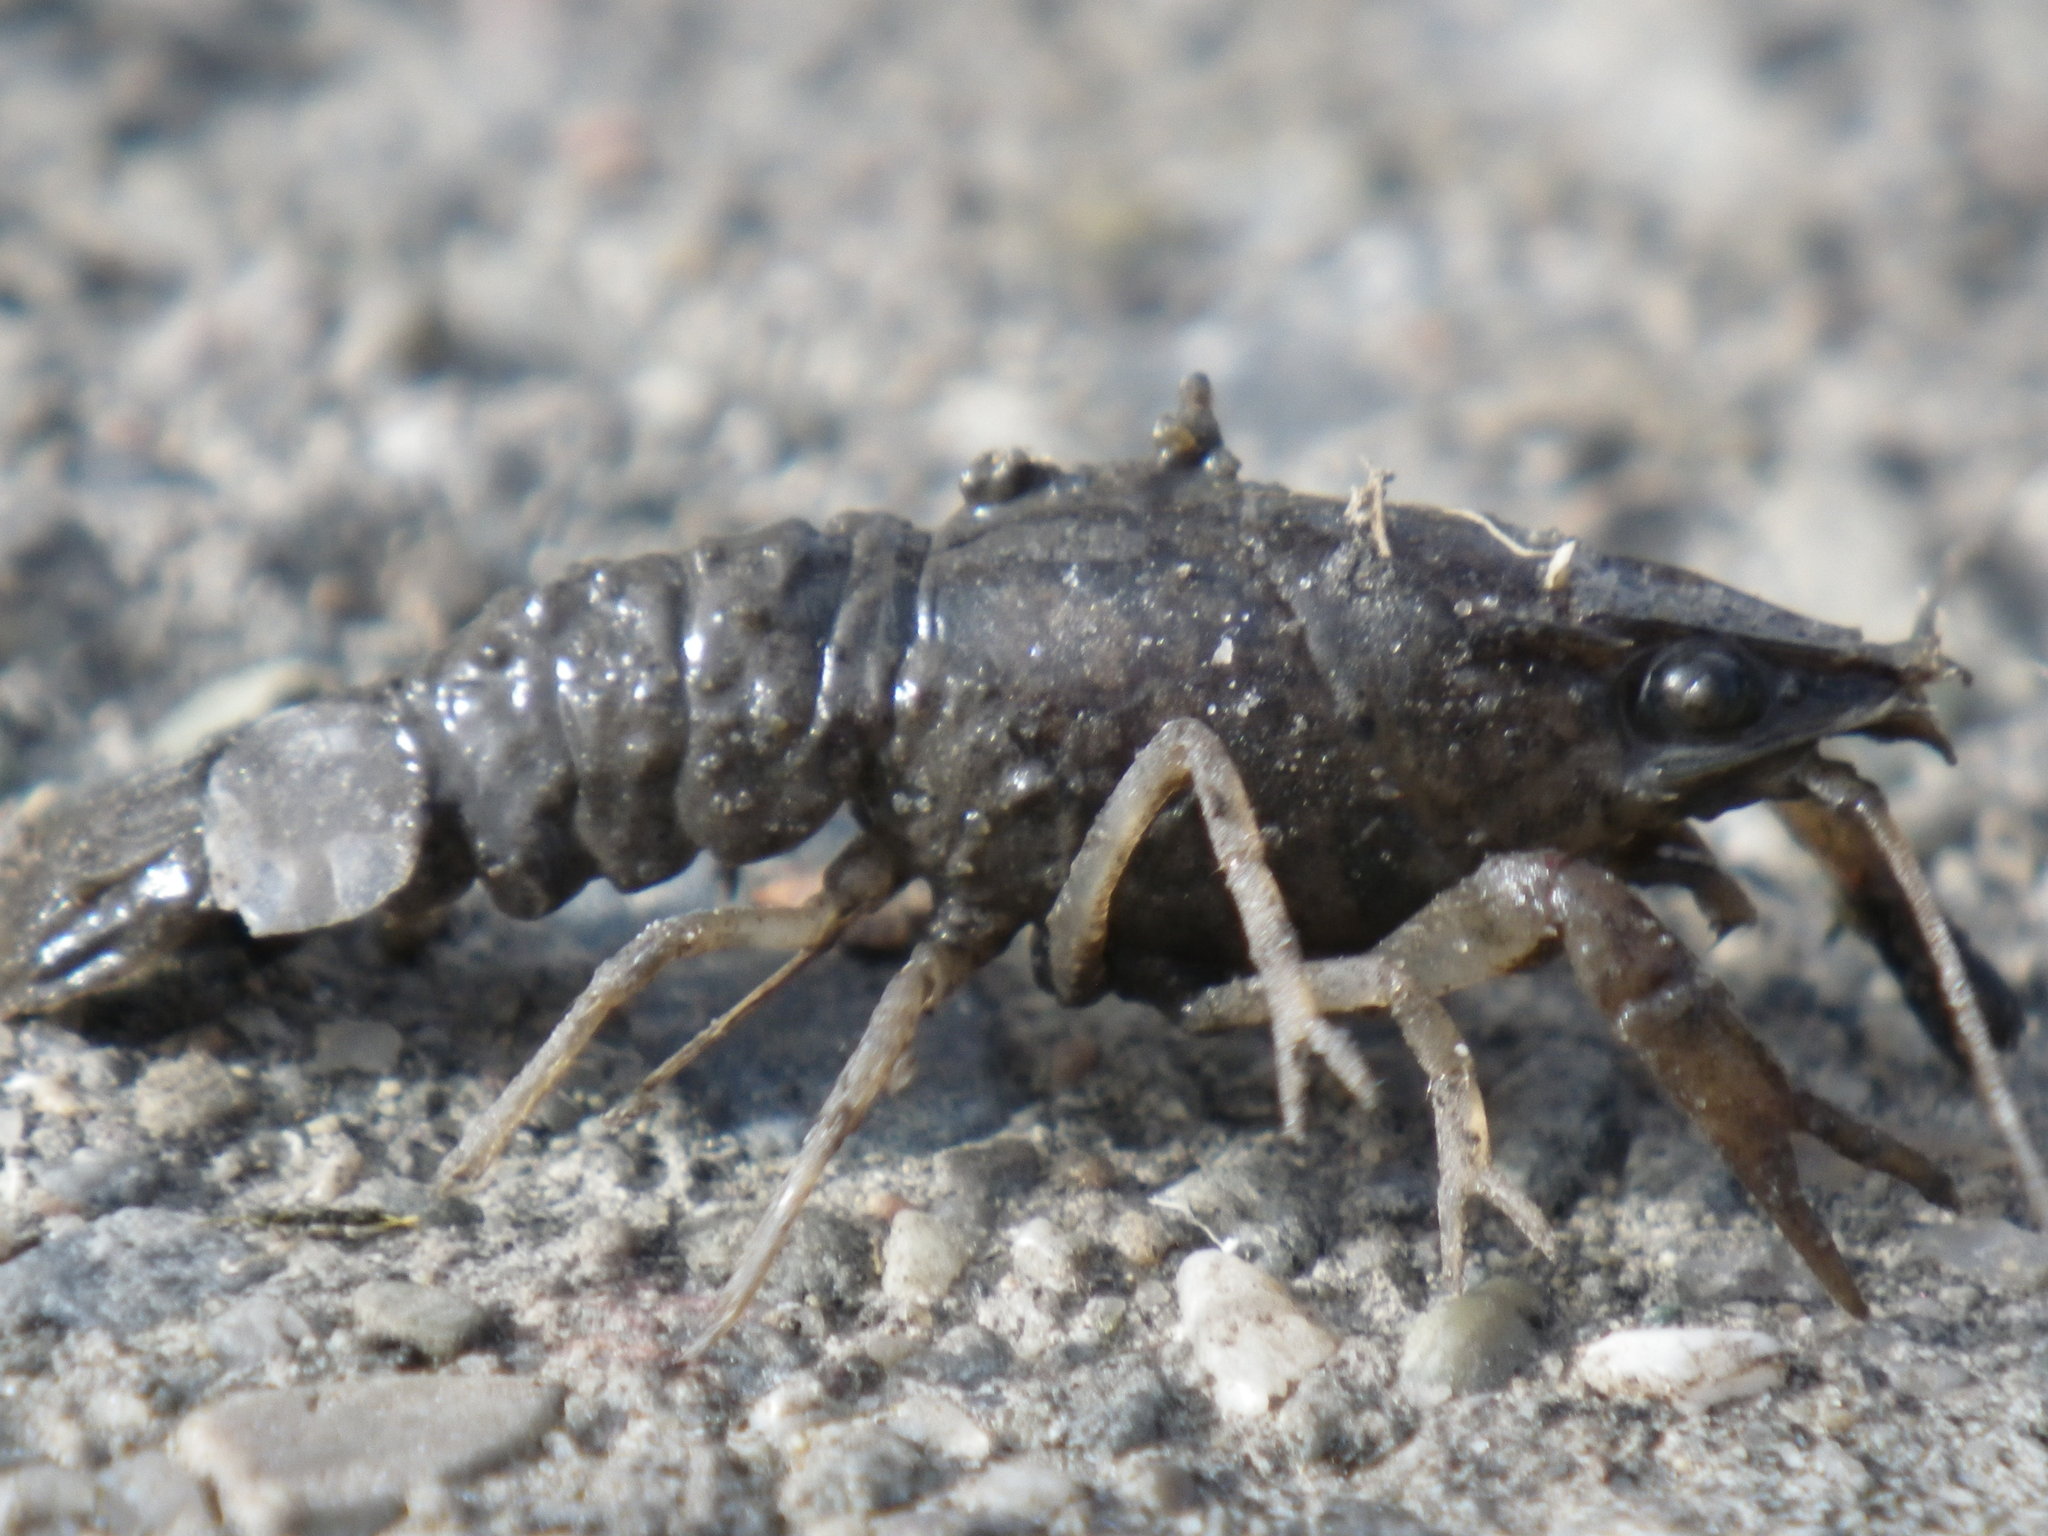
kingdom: Animalia
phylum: Arthropoda
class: Malacostraca
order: Decapoda
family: Cambaridae
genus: Procambarus
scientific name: Procambarus clarkii
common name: Red swamp crayfish
